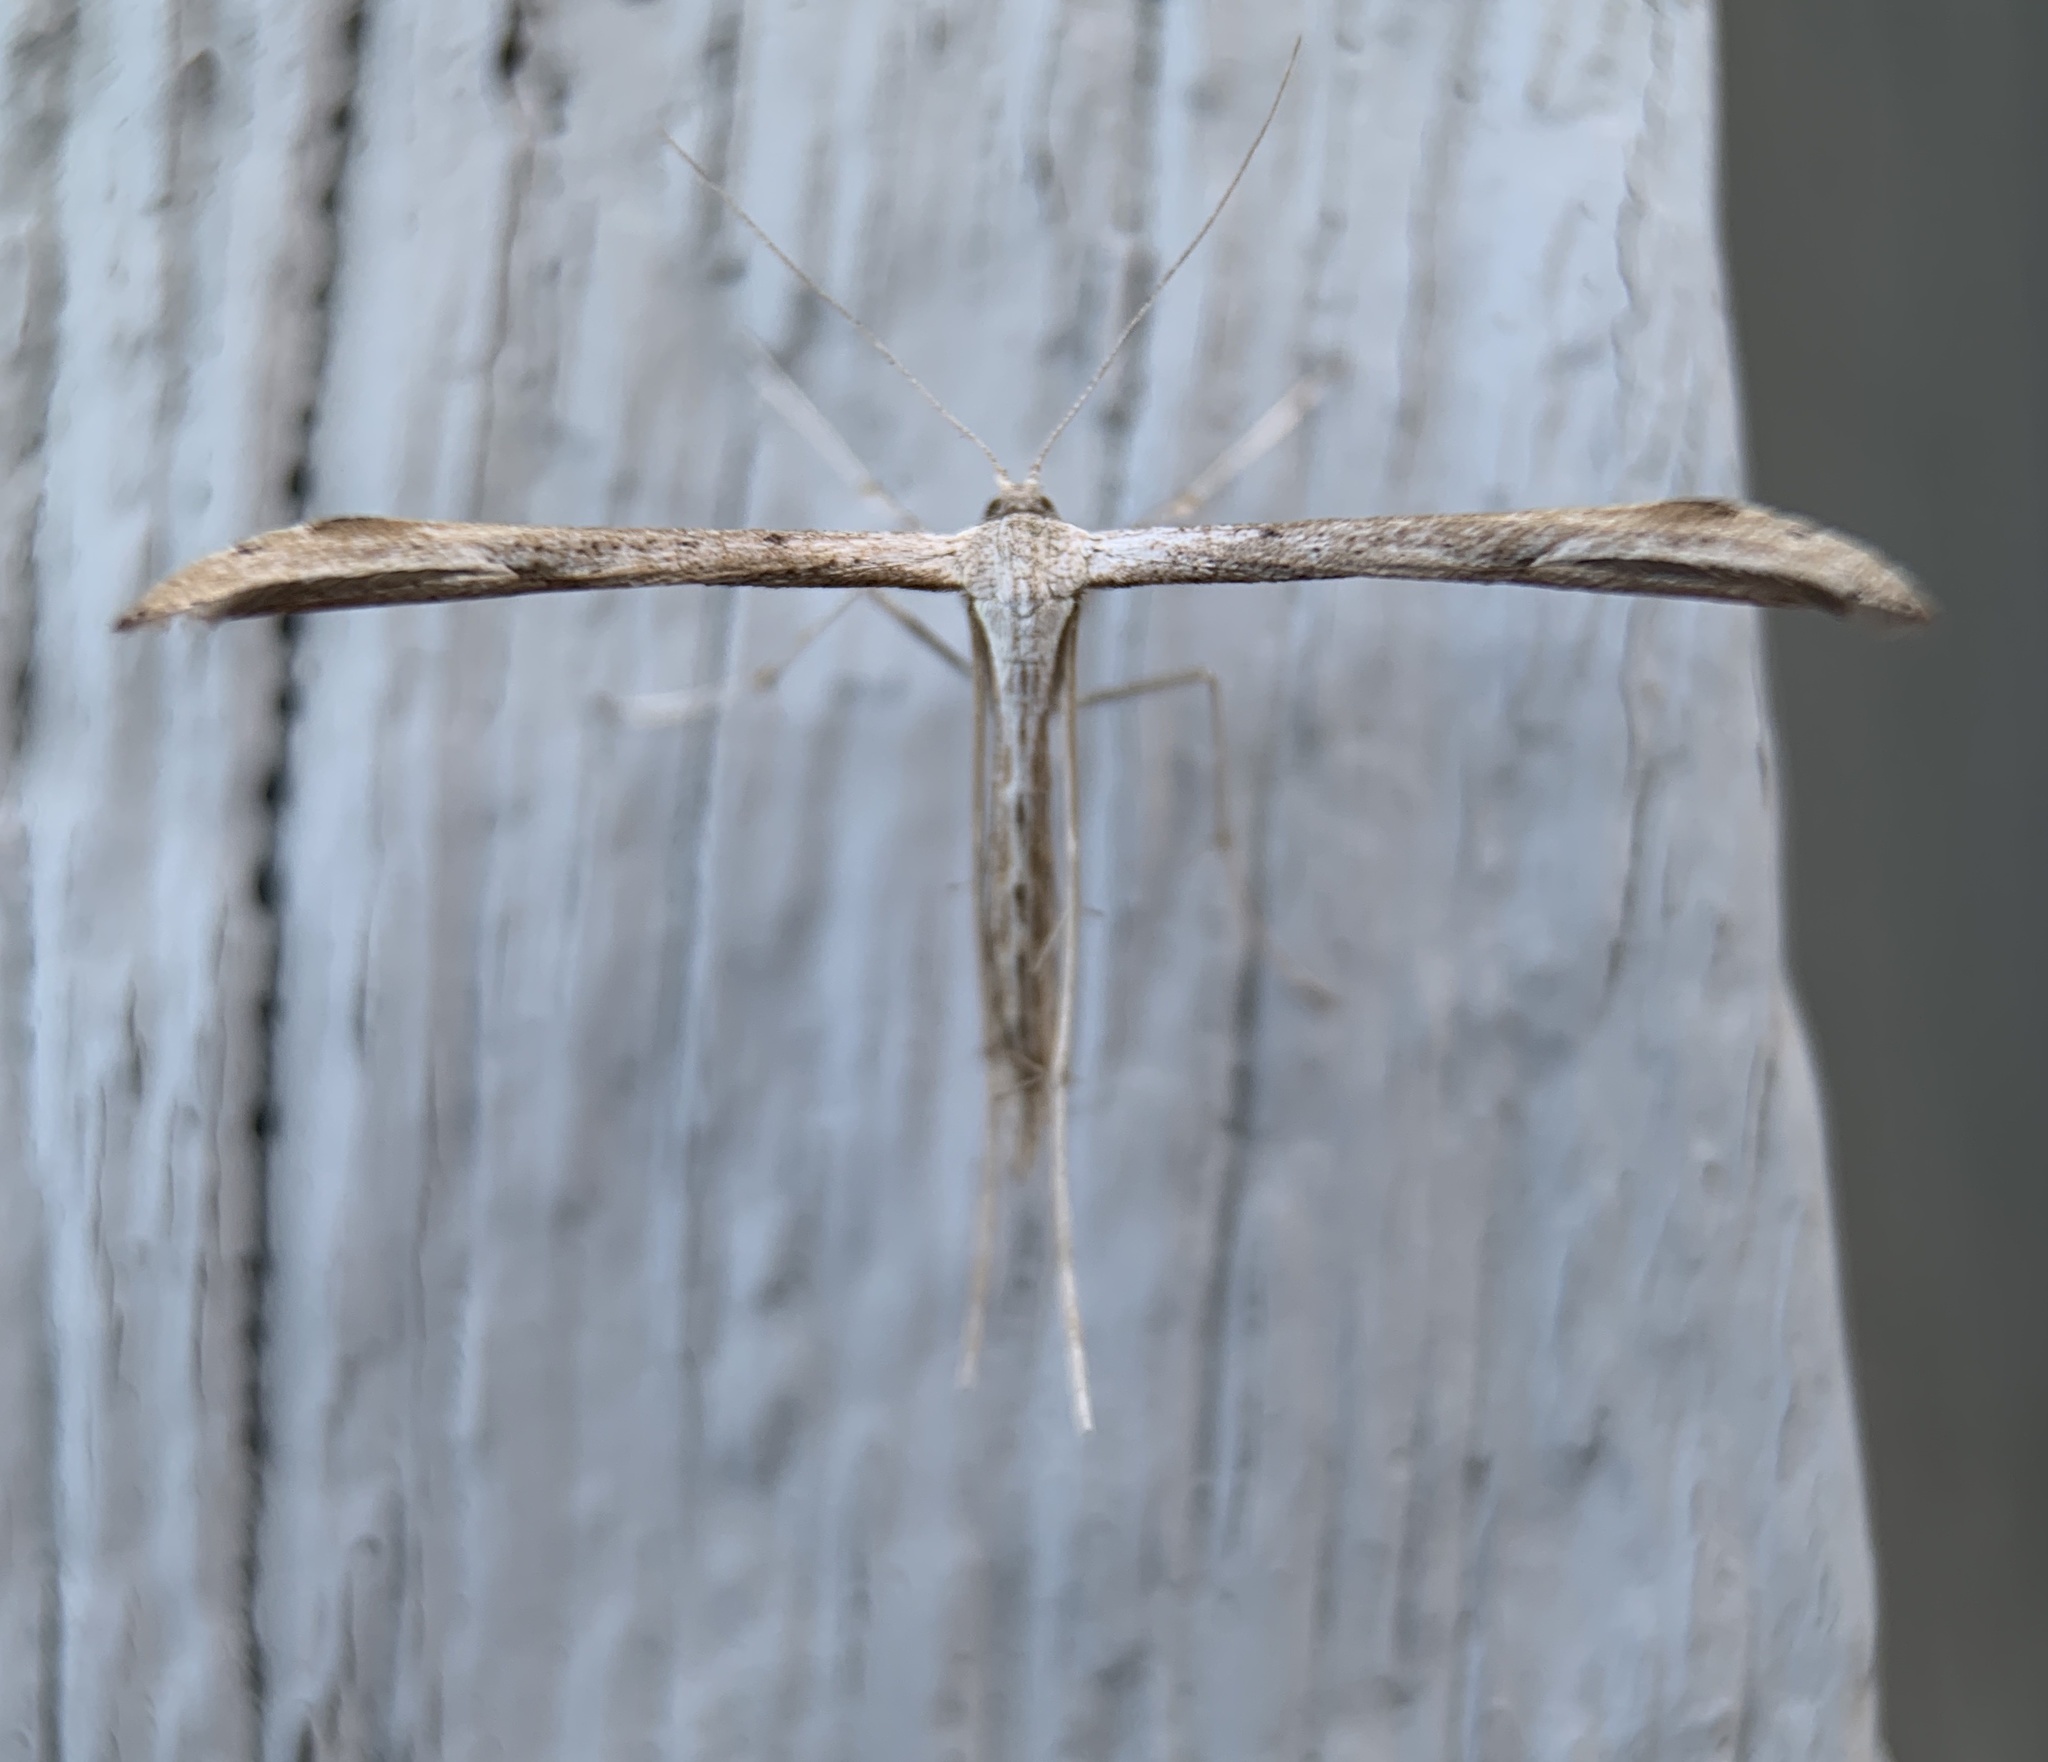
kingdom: Animalia
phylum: Arthropoda
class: Insecta
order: Lepidoptera
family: Pterophoridae
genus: Emmelina
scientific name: Emmelina monodactyla
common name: Common plume
